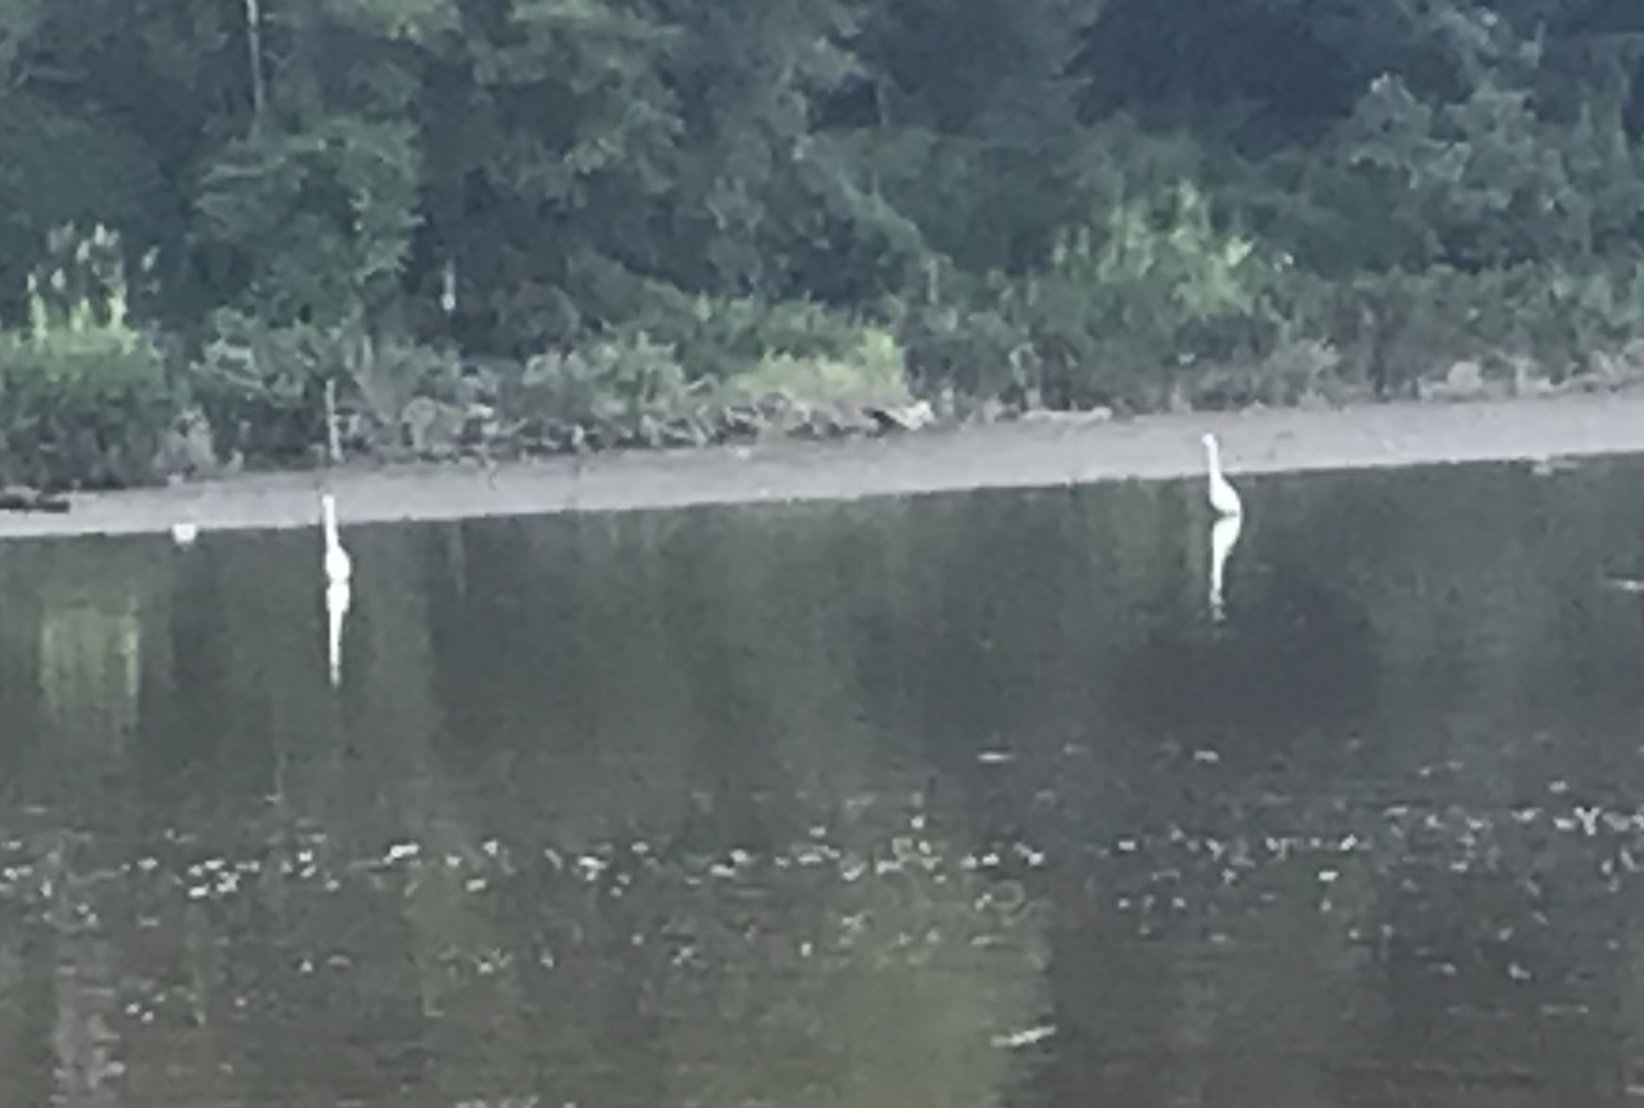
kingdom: Animalia
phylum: Chordata
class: Aves
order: Pelecaniformes
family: Ardeidae
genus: Ardea
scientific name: Ardea alba
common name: Great egret
